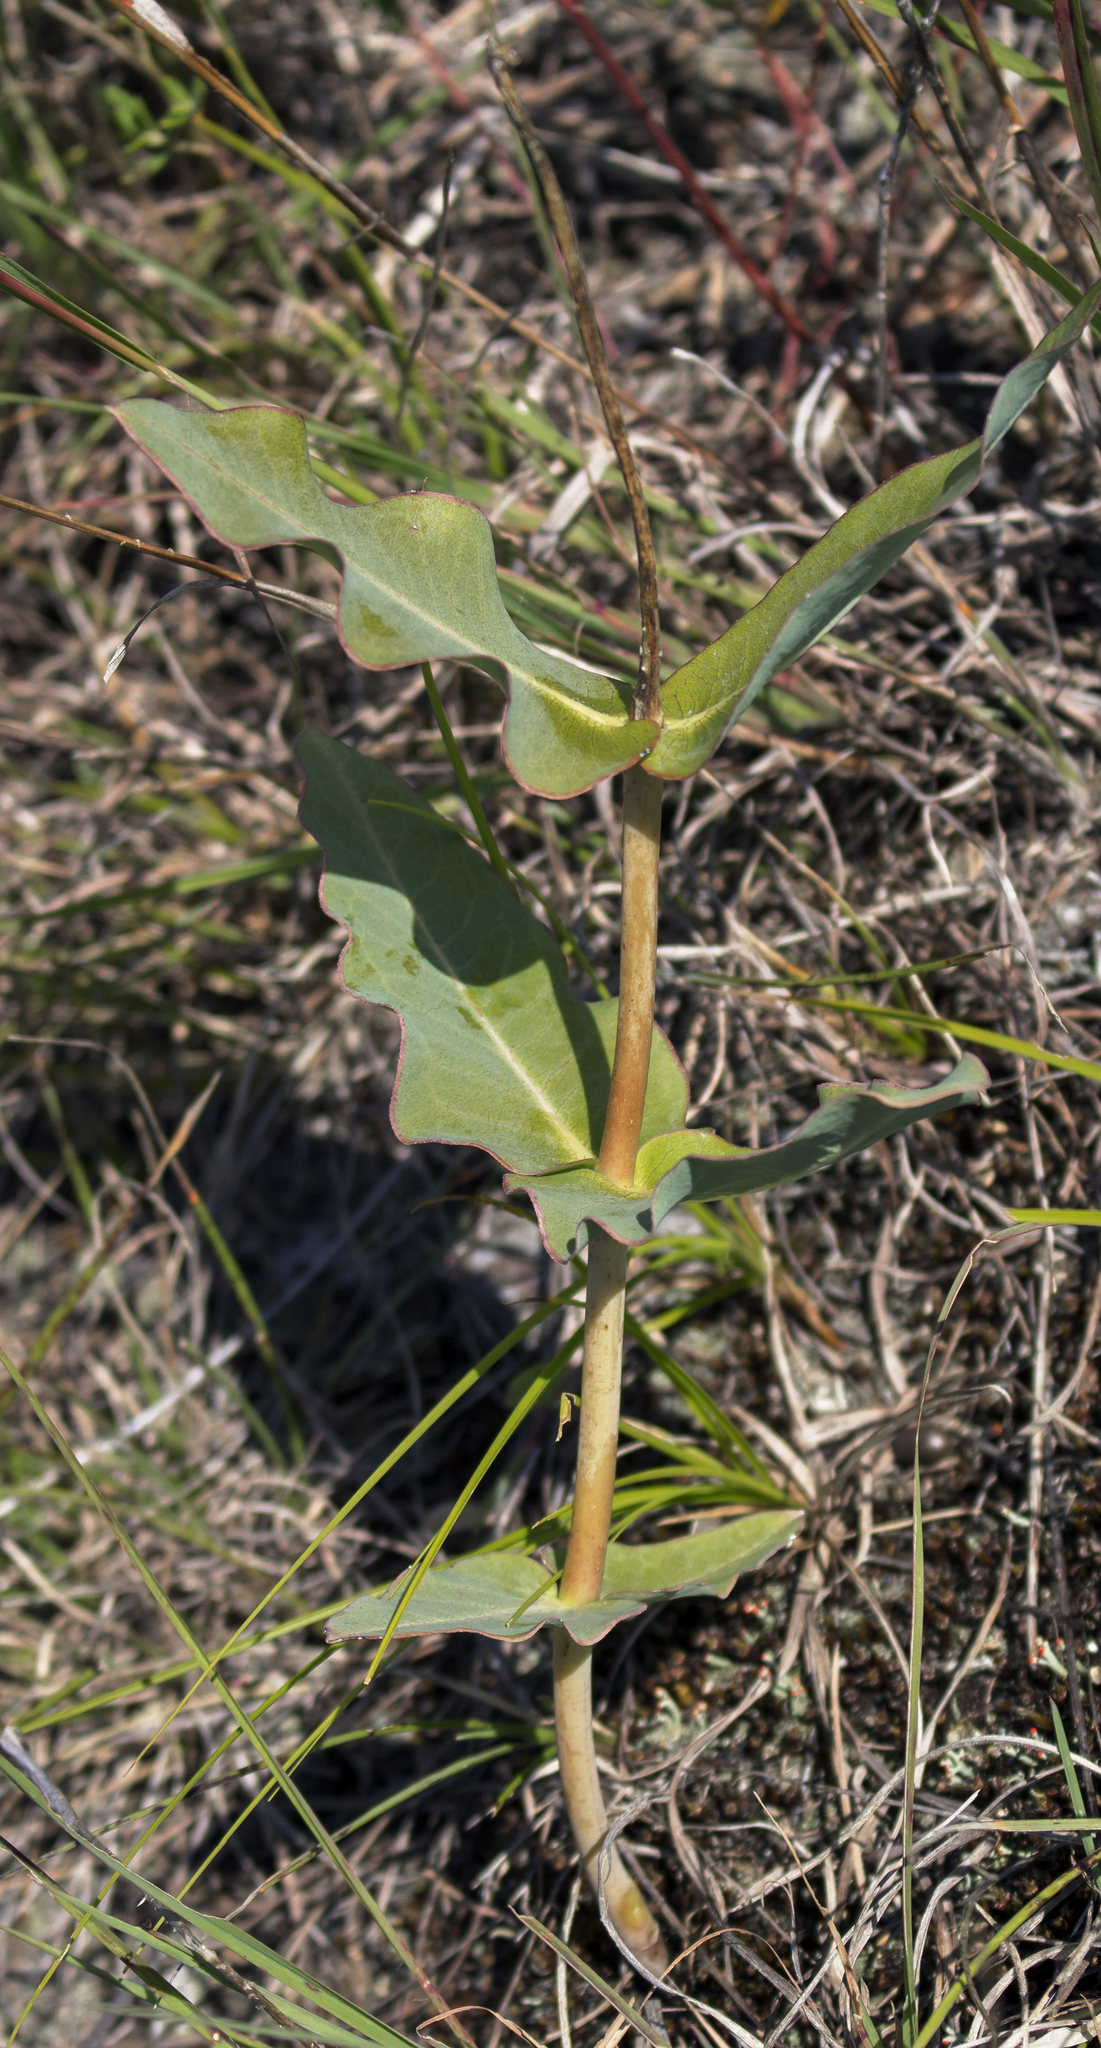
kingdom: Plantae
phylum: Tracheophyta
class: Magnoliopsida
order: Gentianales
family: Apocynaceae
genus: Asclepias
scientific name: Asclepias amplexicaulis
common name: Blunt-leaf milkweed
